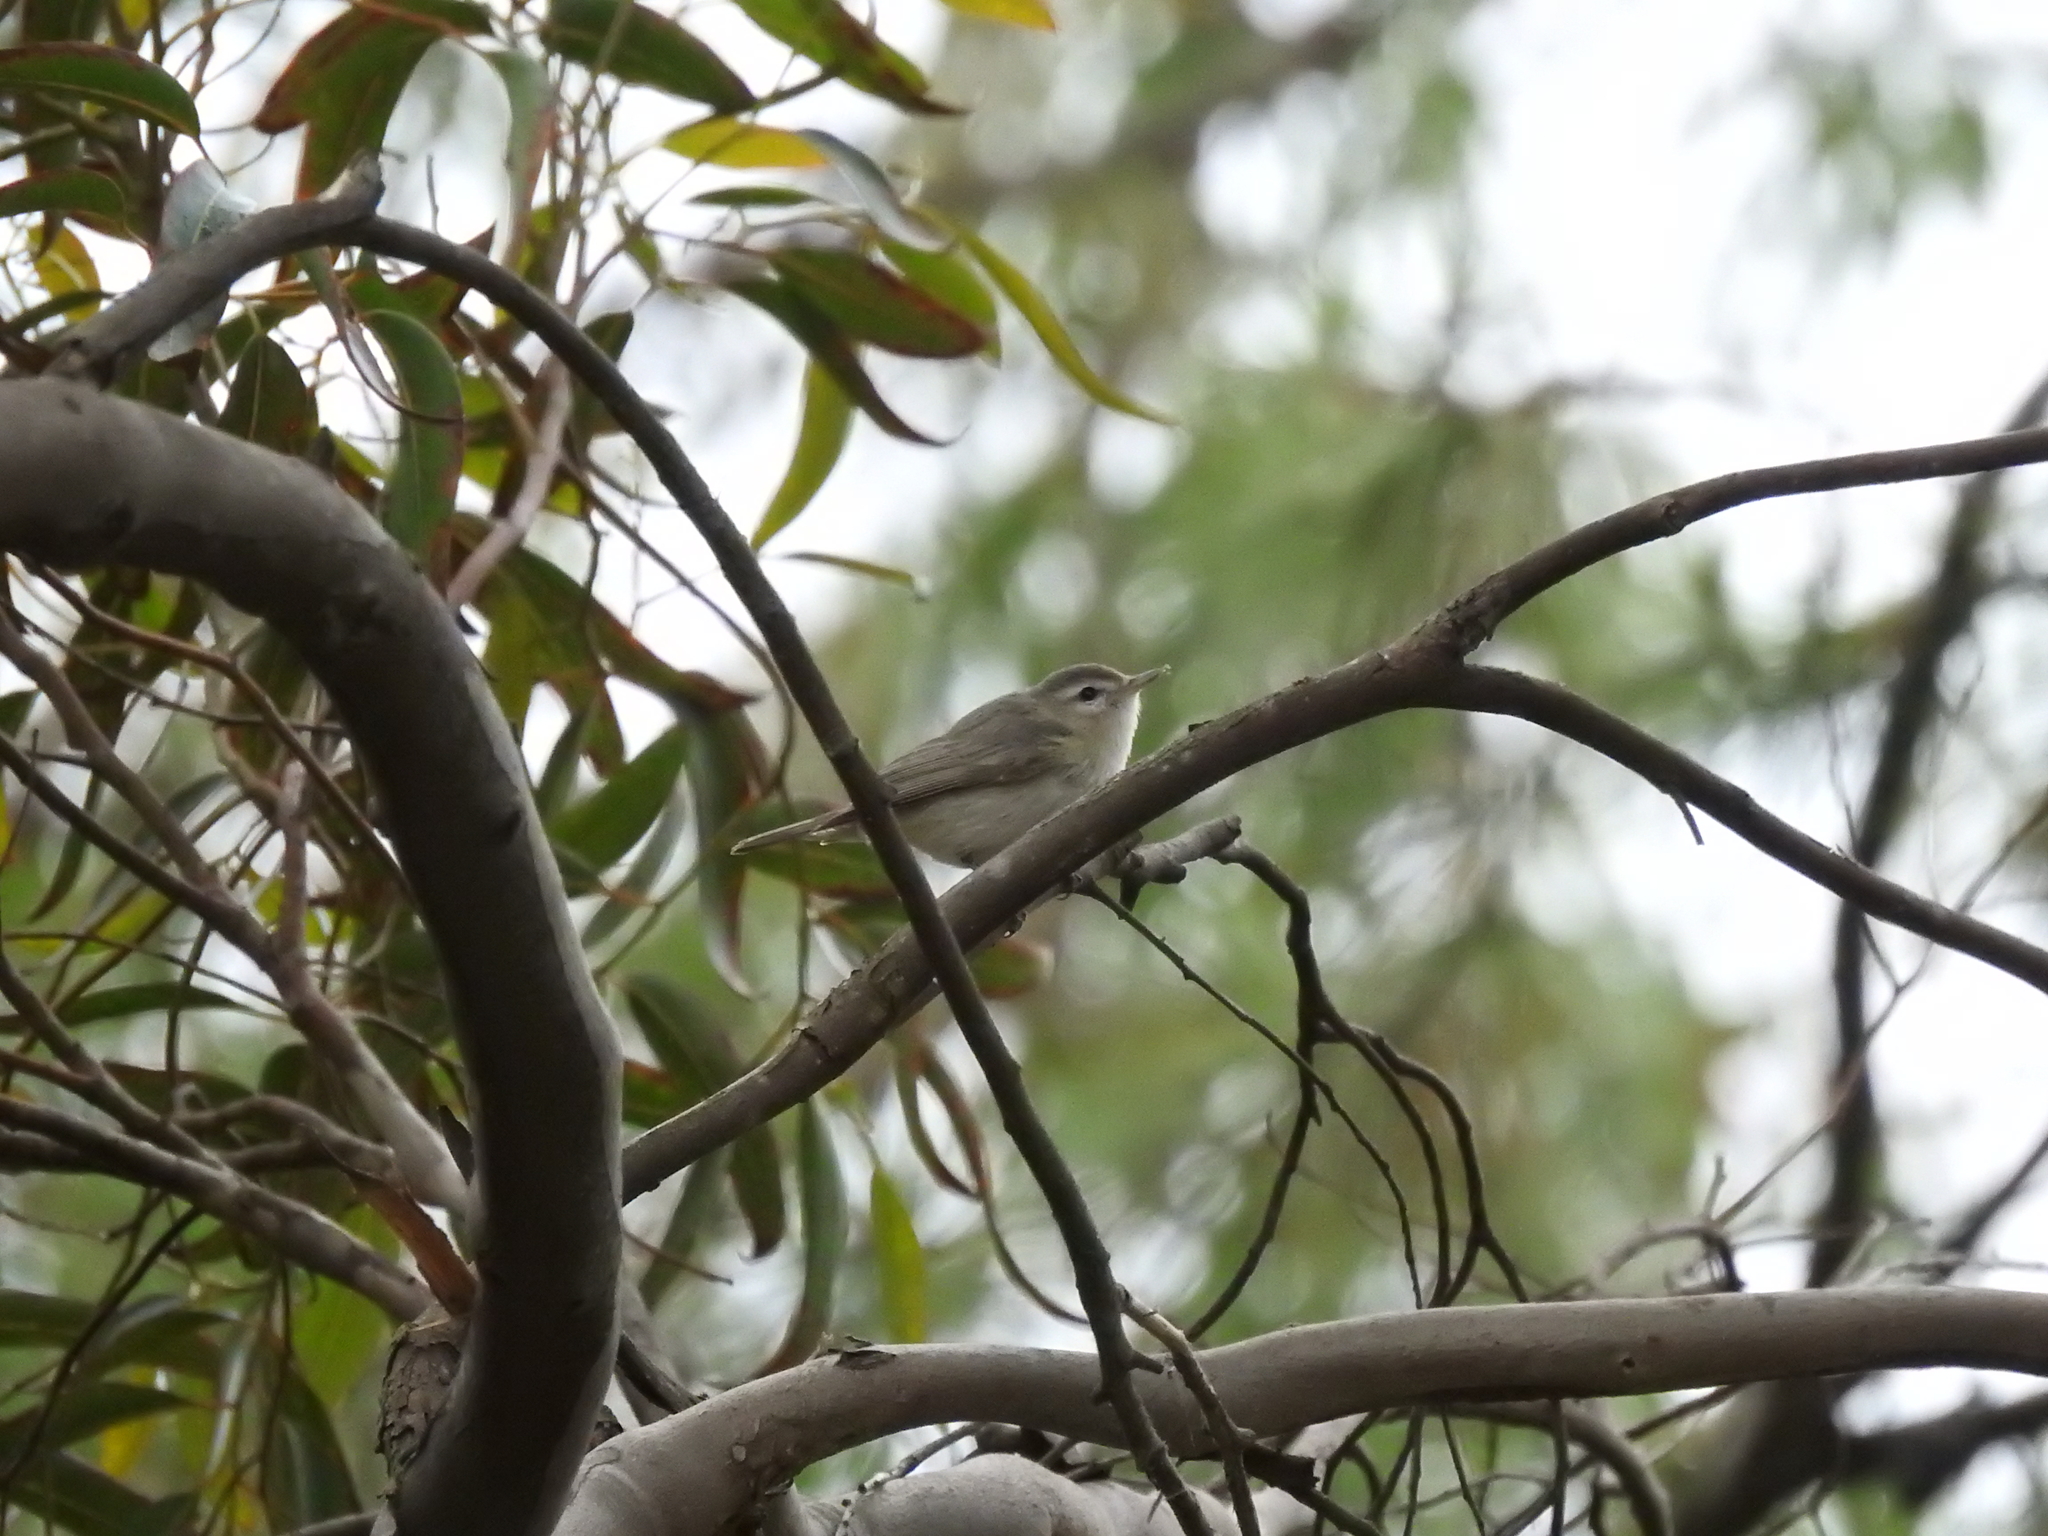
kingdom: Animalia
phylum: Chordata
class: Aves
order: Passeriformes
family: Vireonidae
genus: Vireo
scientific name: Vireo gilvus
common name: Warbling vireo
